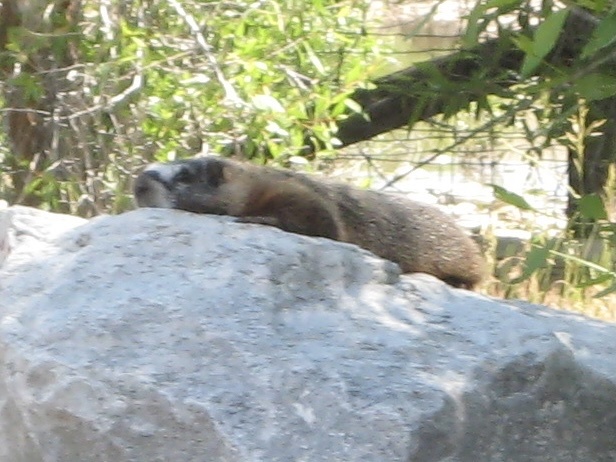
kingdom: Animalia
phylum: Chordata
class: Mammalia
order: Rodentia
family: Sciuridae
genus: Marmota
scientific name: Marmota flaviventris
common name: Yellow-bellied marmot
